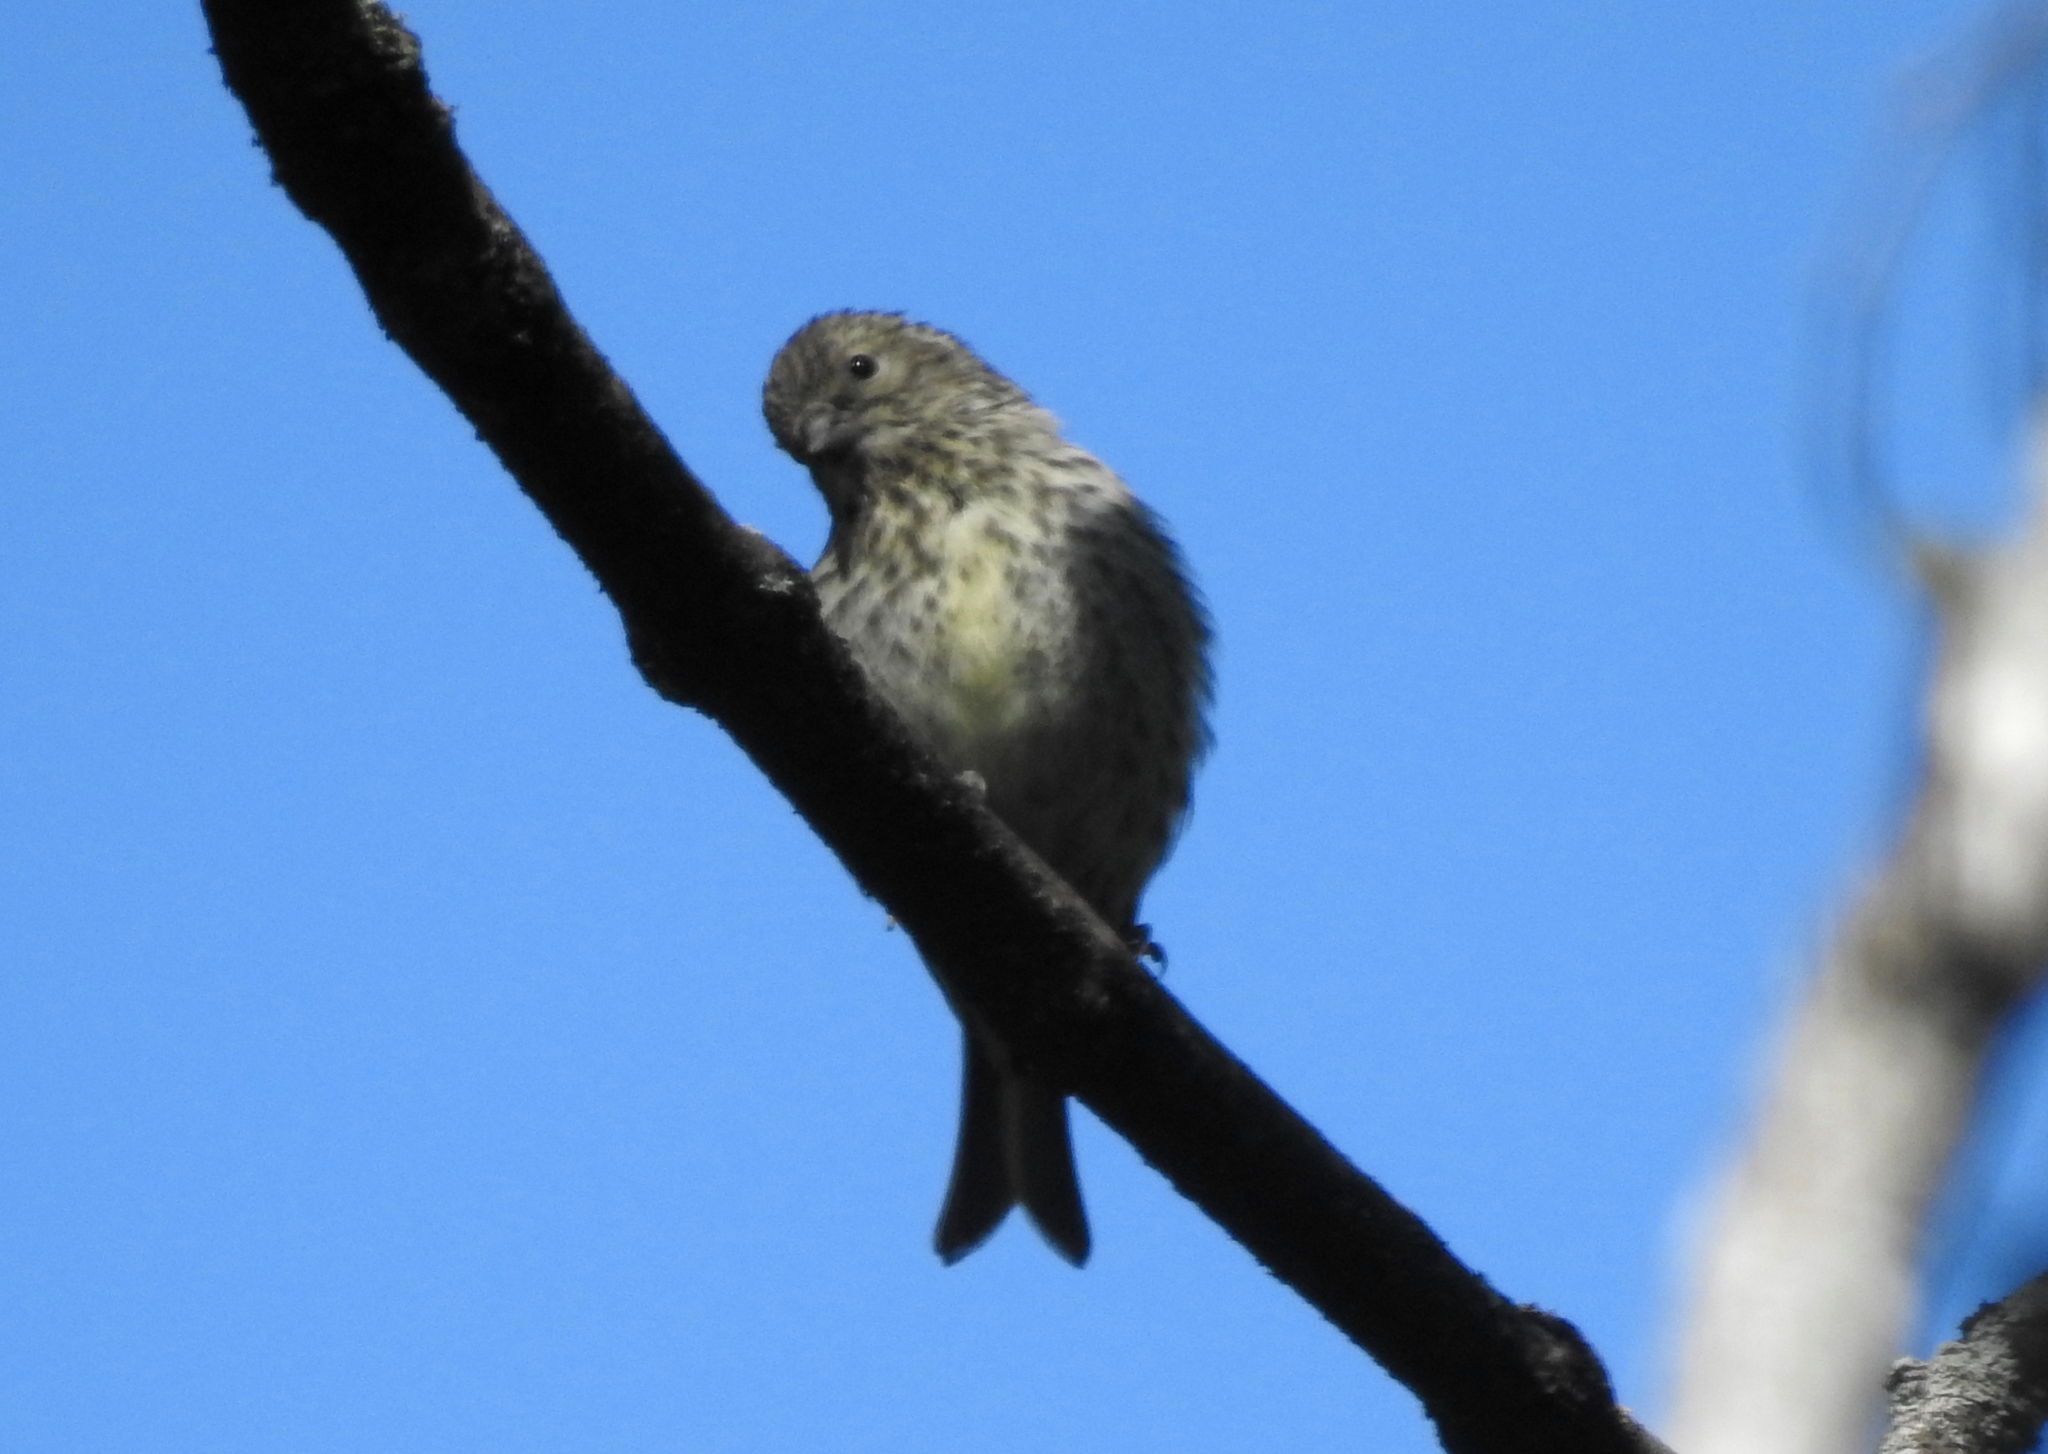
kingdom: Animalia
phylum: Chordata
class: Aves
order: Passeriformes
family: Fringillidae
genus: Spinus
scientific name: Spinus spinus
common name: Eurasian siskin
